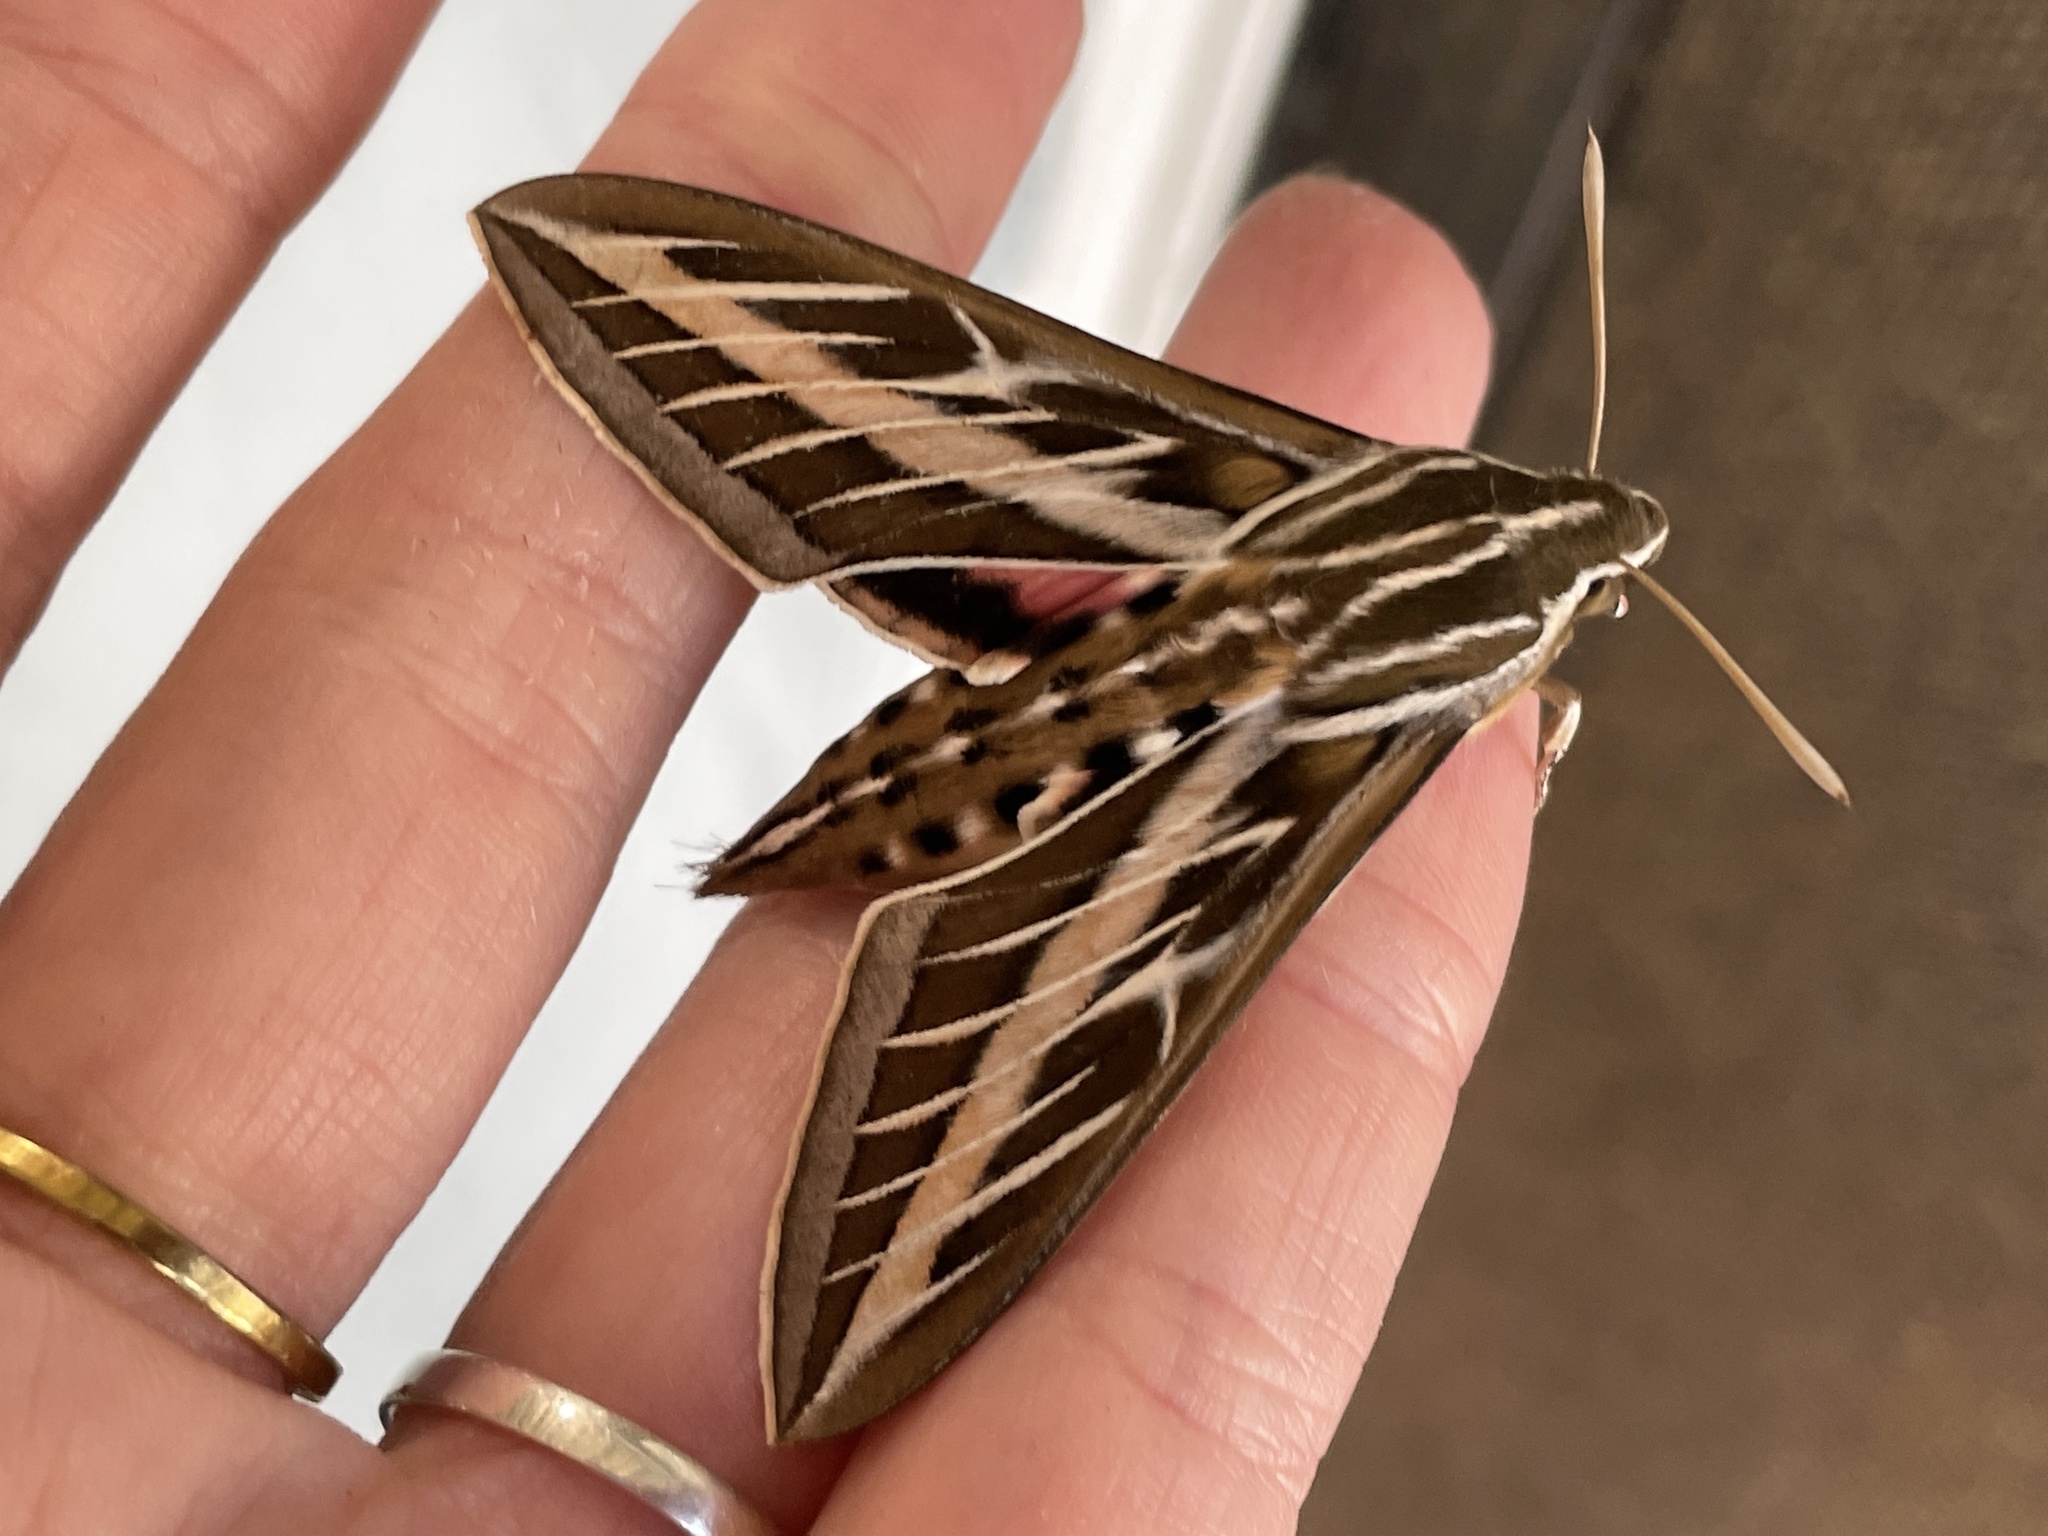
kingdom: Animalia
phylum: Arthropoda
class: Insecta
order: Lepidoptera
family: Sphingidae
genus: Hyles
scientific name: Hyles lineata
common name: White-lined sphinx
